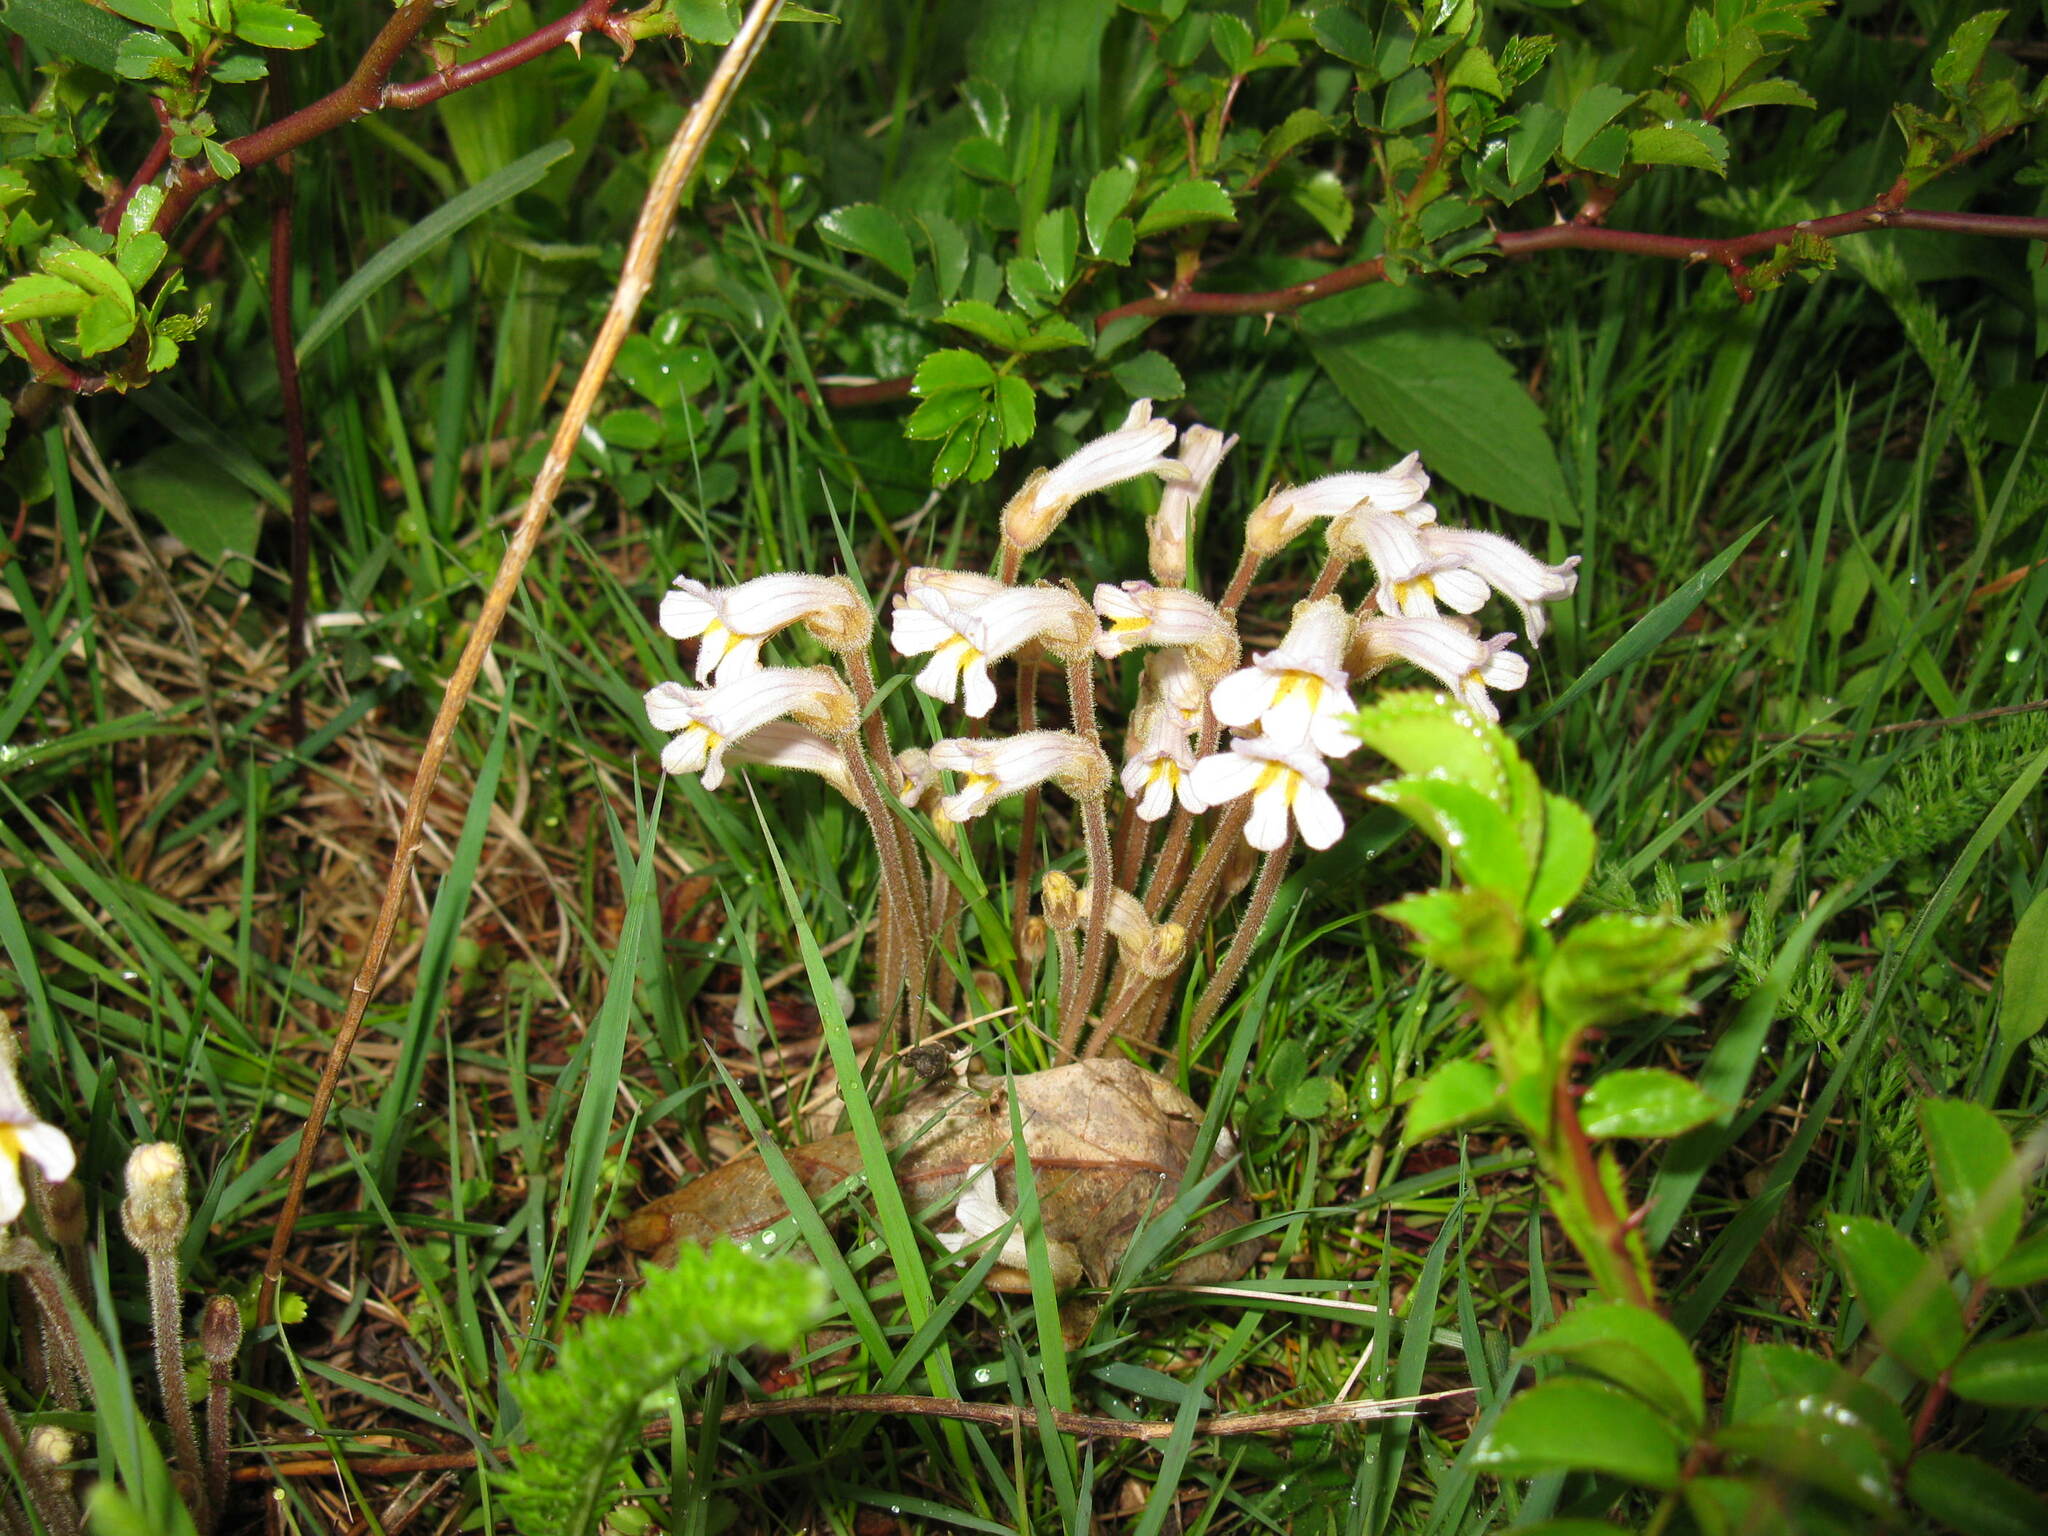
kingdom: Plantae
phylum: Tracheophyta
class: Magnoliopsida
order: Lamiales
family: Orobanchaceae
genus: Aphyllon
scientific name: Aphyllon uniflorum
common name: One-flowered broomrape
